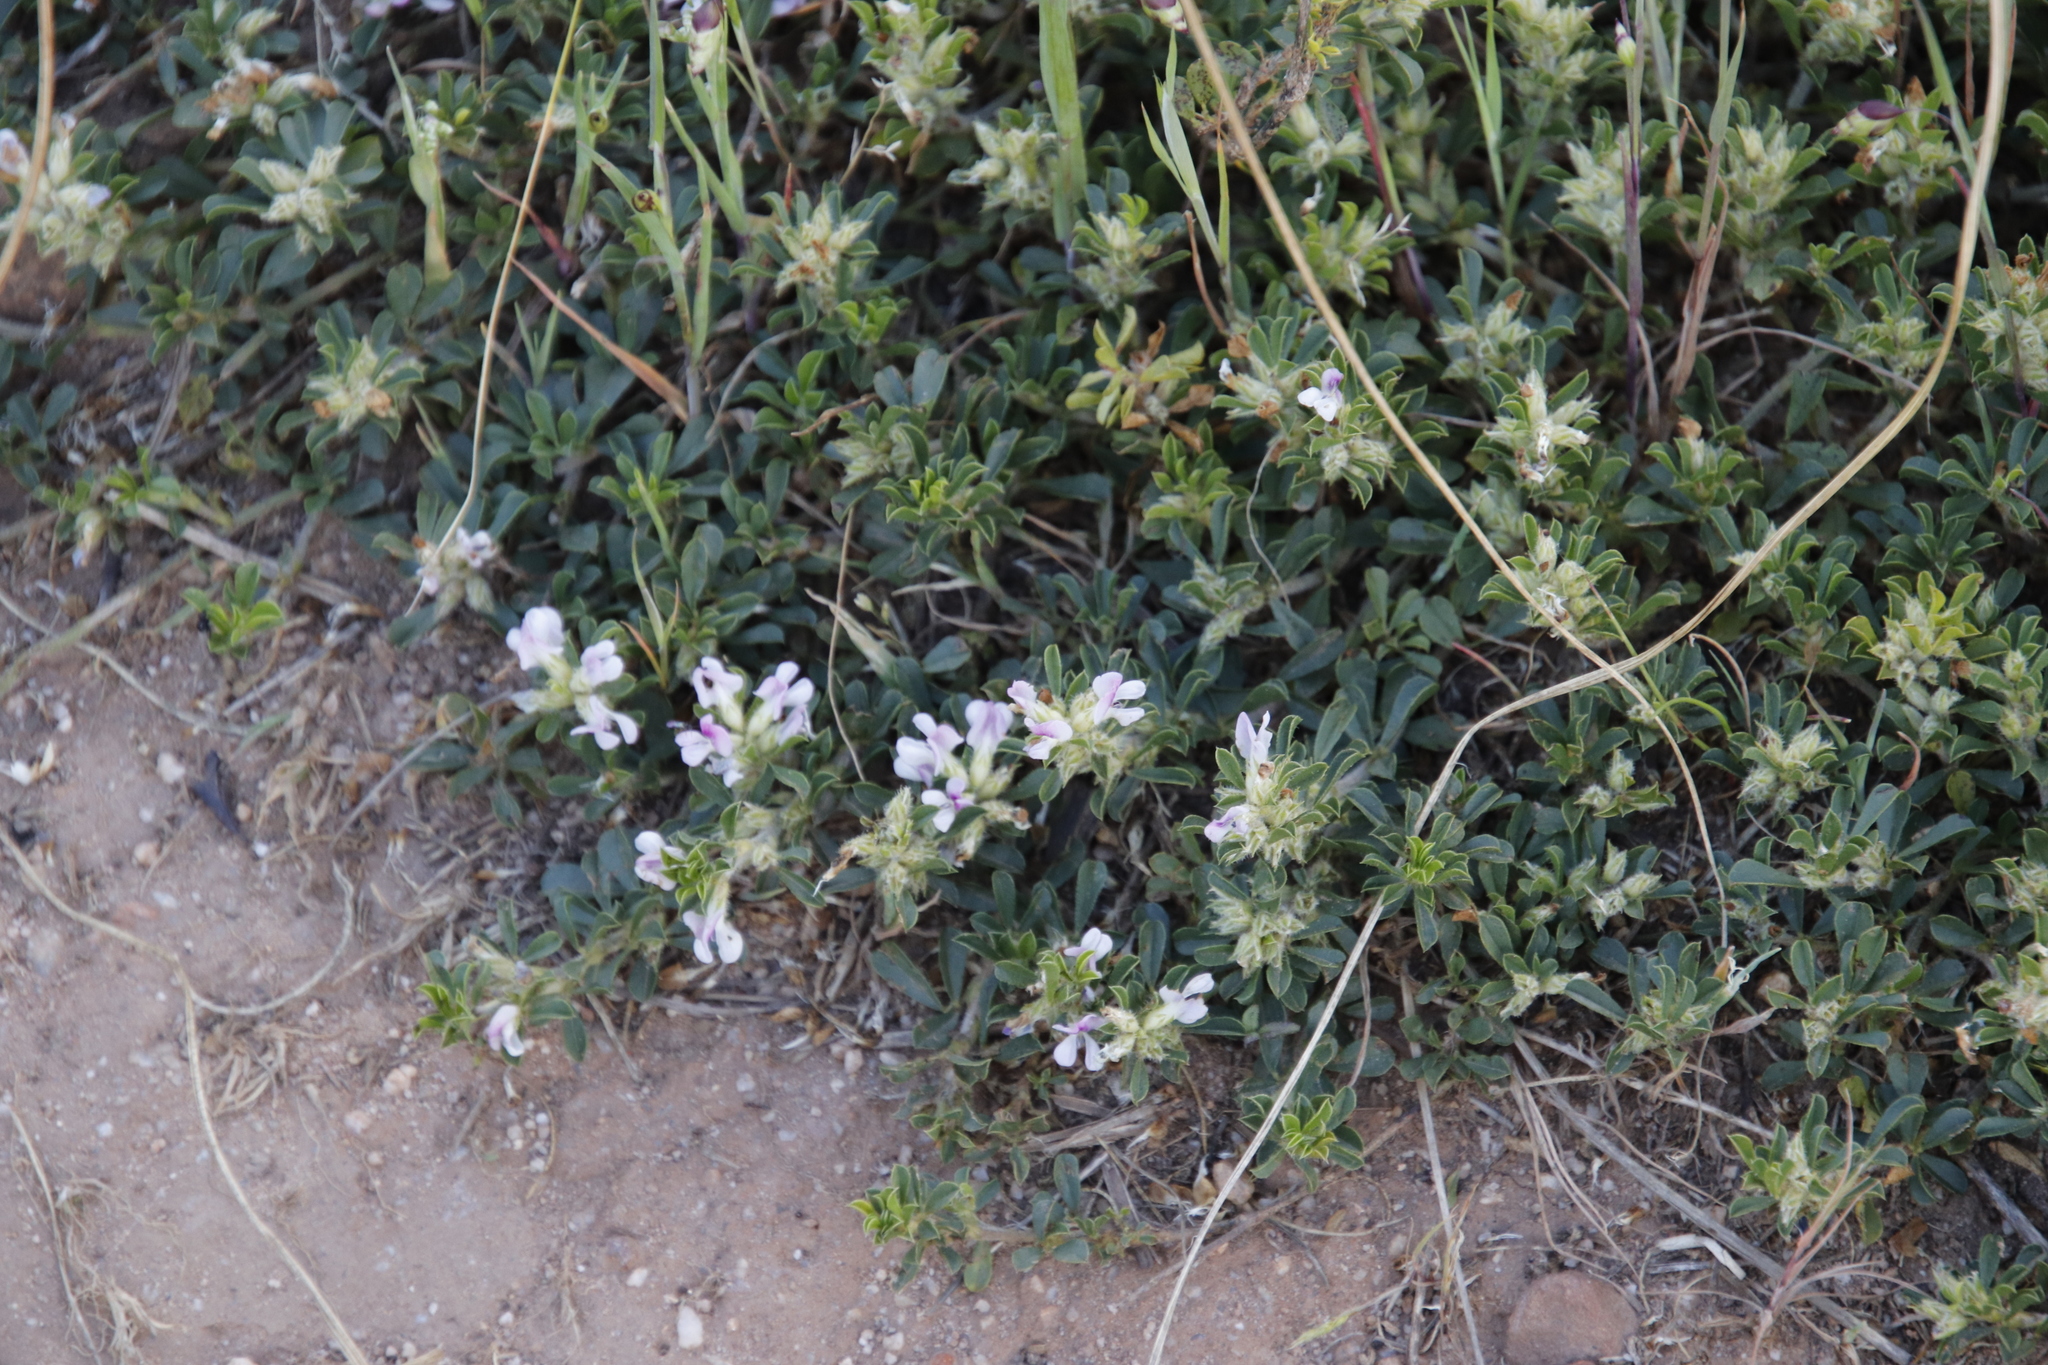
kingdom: Plantae
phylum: Tracheophyta
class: Magnoliopsida
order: Fabales
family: Fabaceae
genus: Psoralea
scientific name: Psoralea
